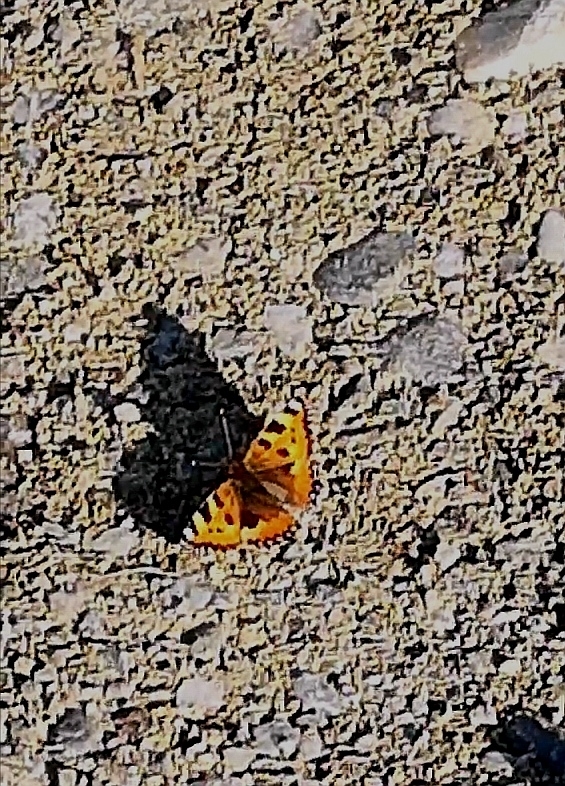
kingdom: Animalia
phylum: Arthropoda
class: Insecta
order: Lepidoptera
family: Nymphalidae
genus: Aglais
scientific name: Aglais urticae
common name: Small tortoiseshell
